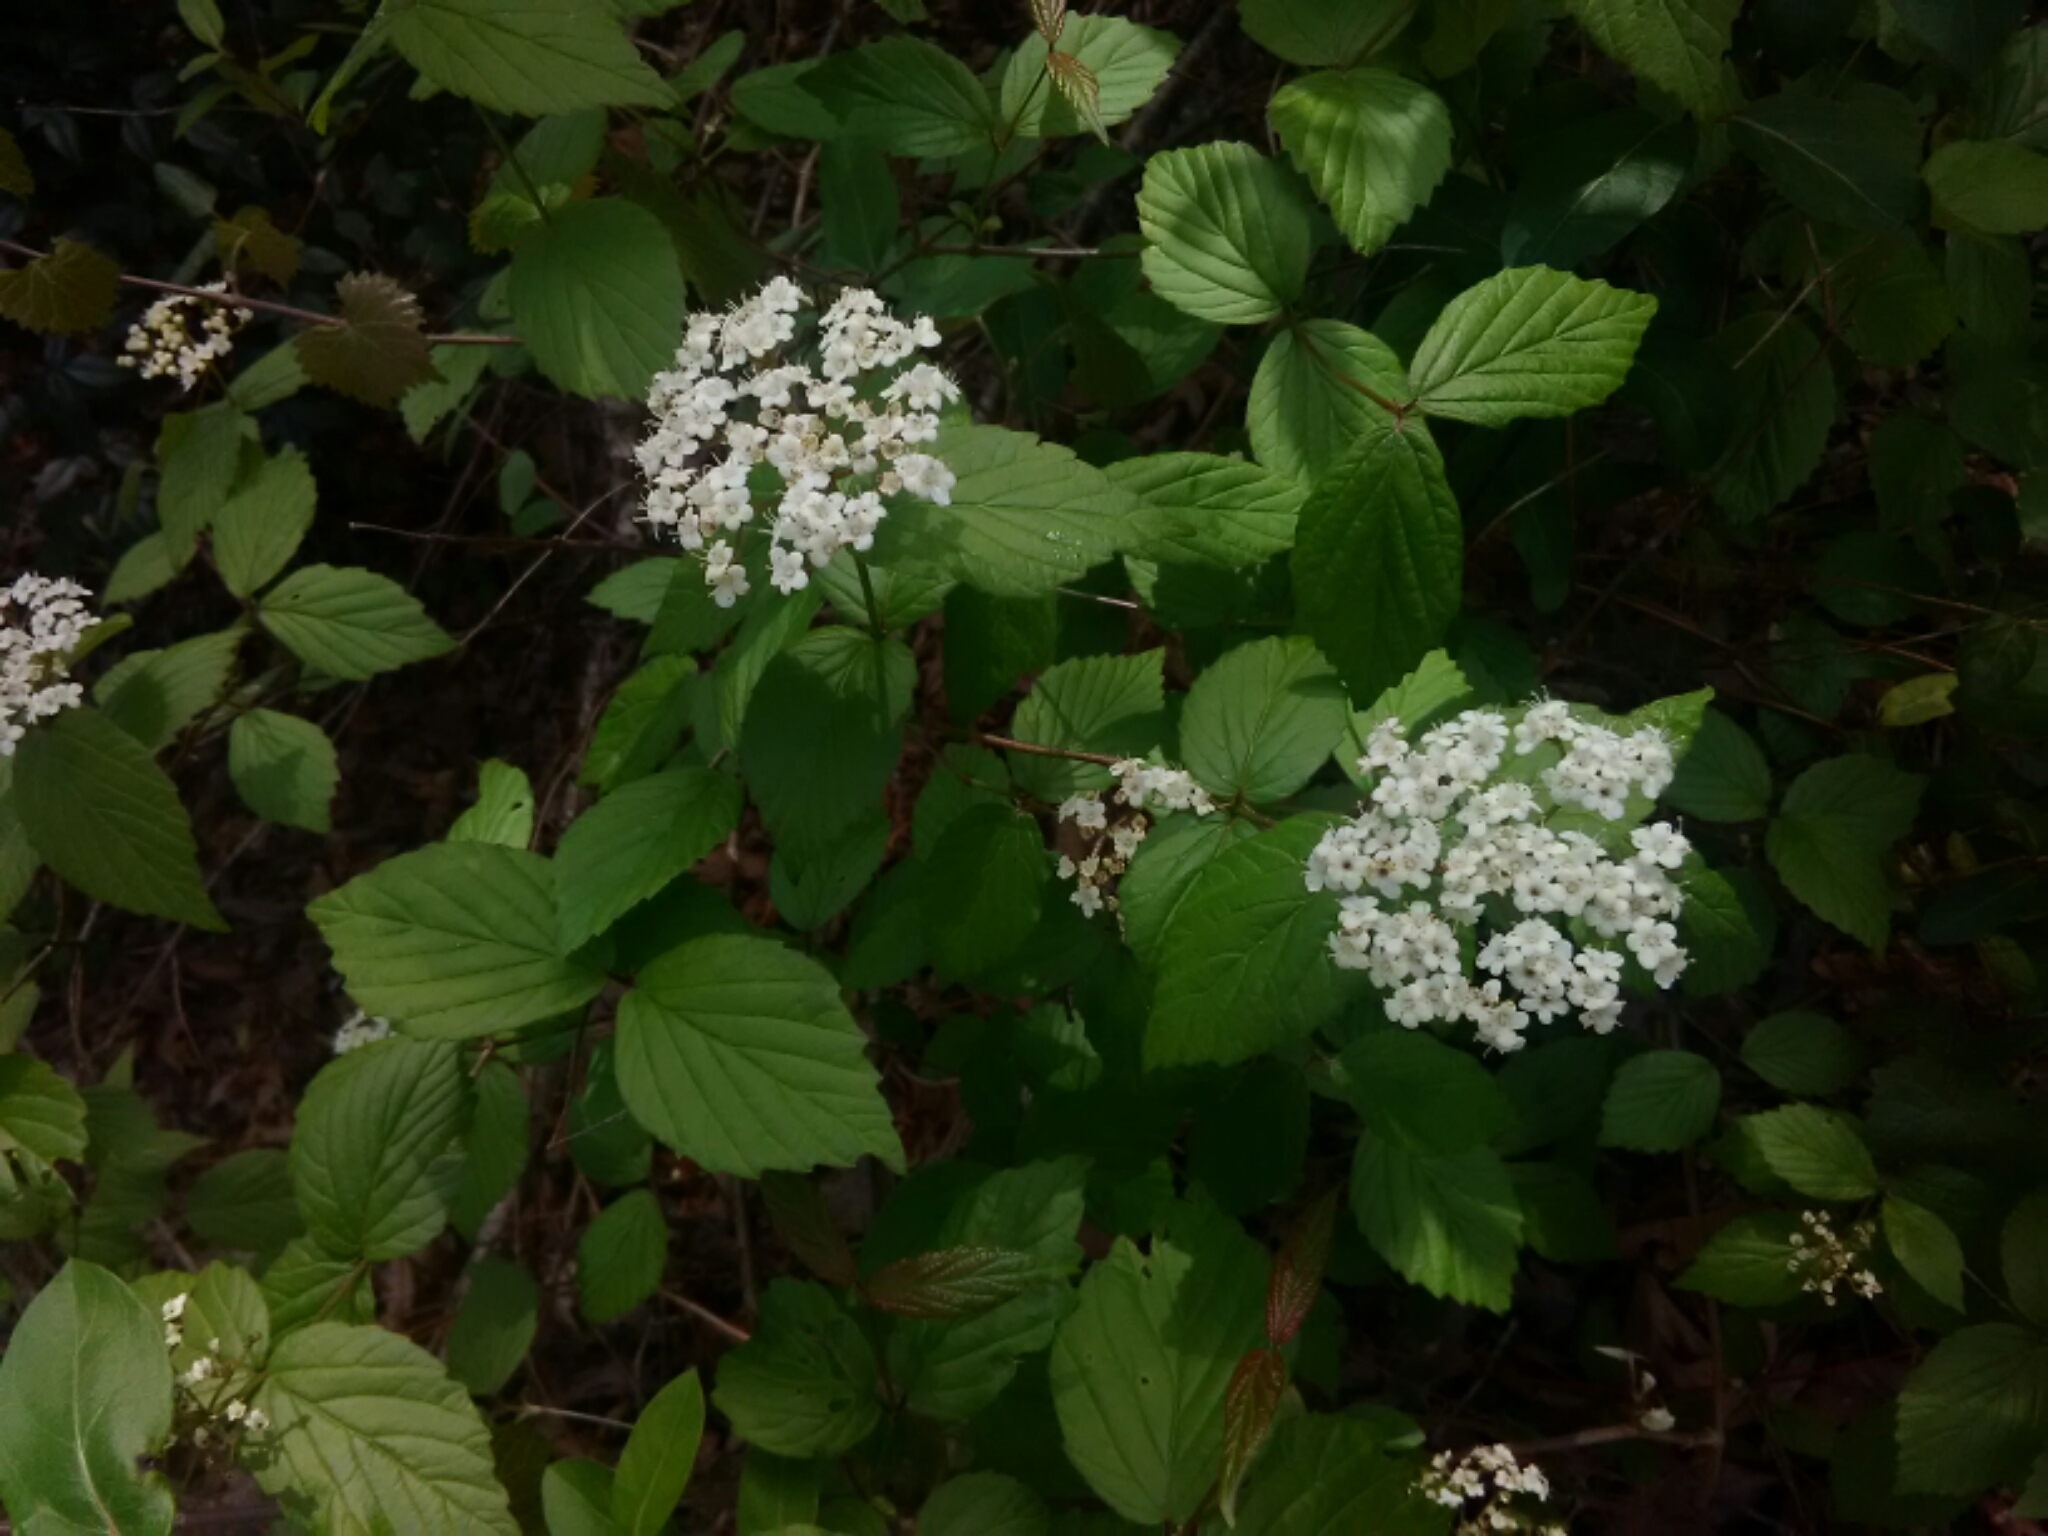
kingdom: Plantae
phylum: Tracheophyta
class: Magnoliopsida
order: Dipsacales
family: Viburnaceae
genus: Viburnum
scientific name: Viburnum rafinesqueanum
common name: Downy arrow-wood
